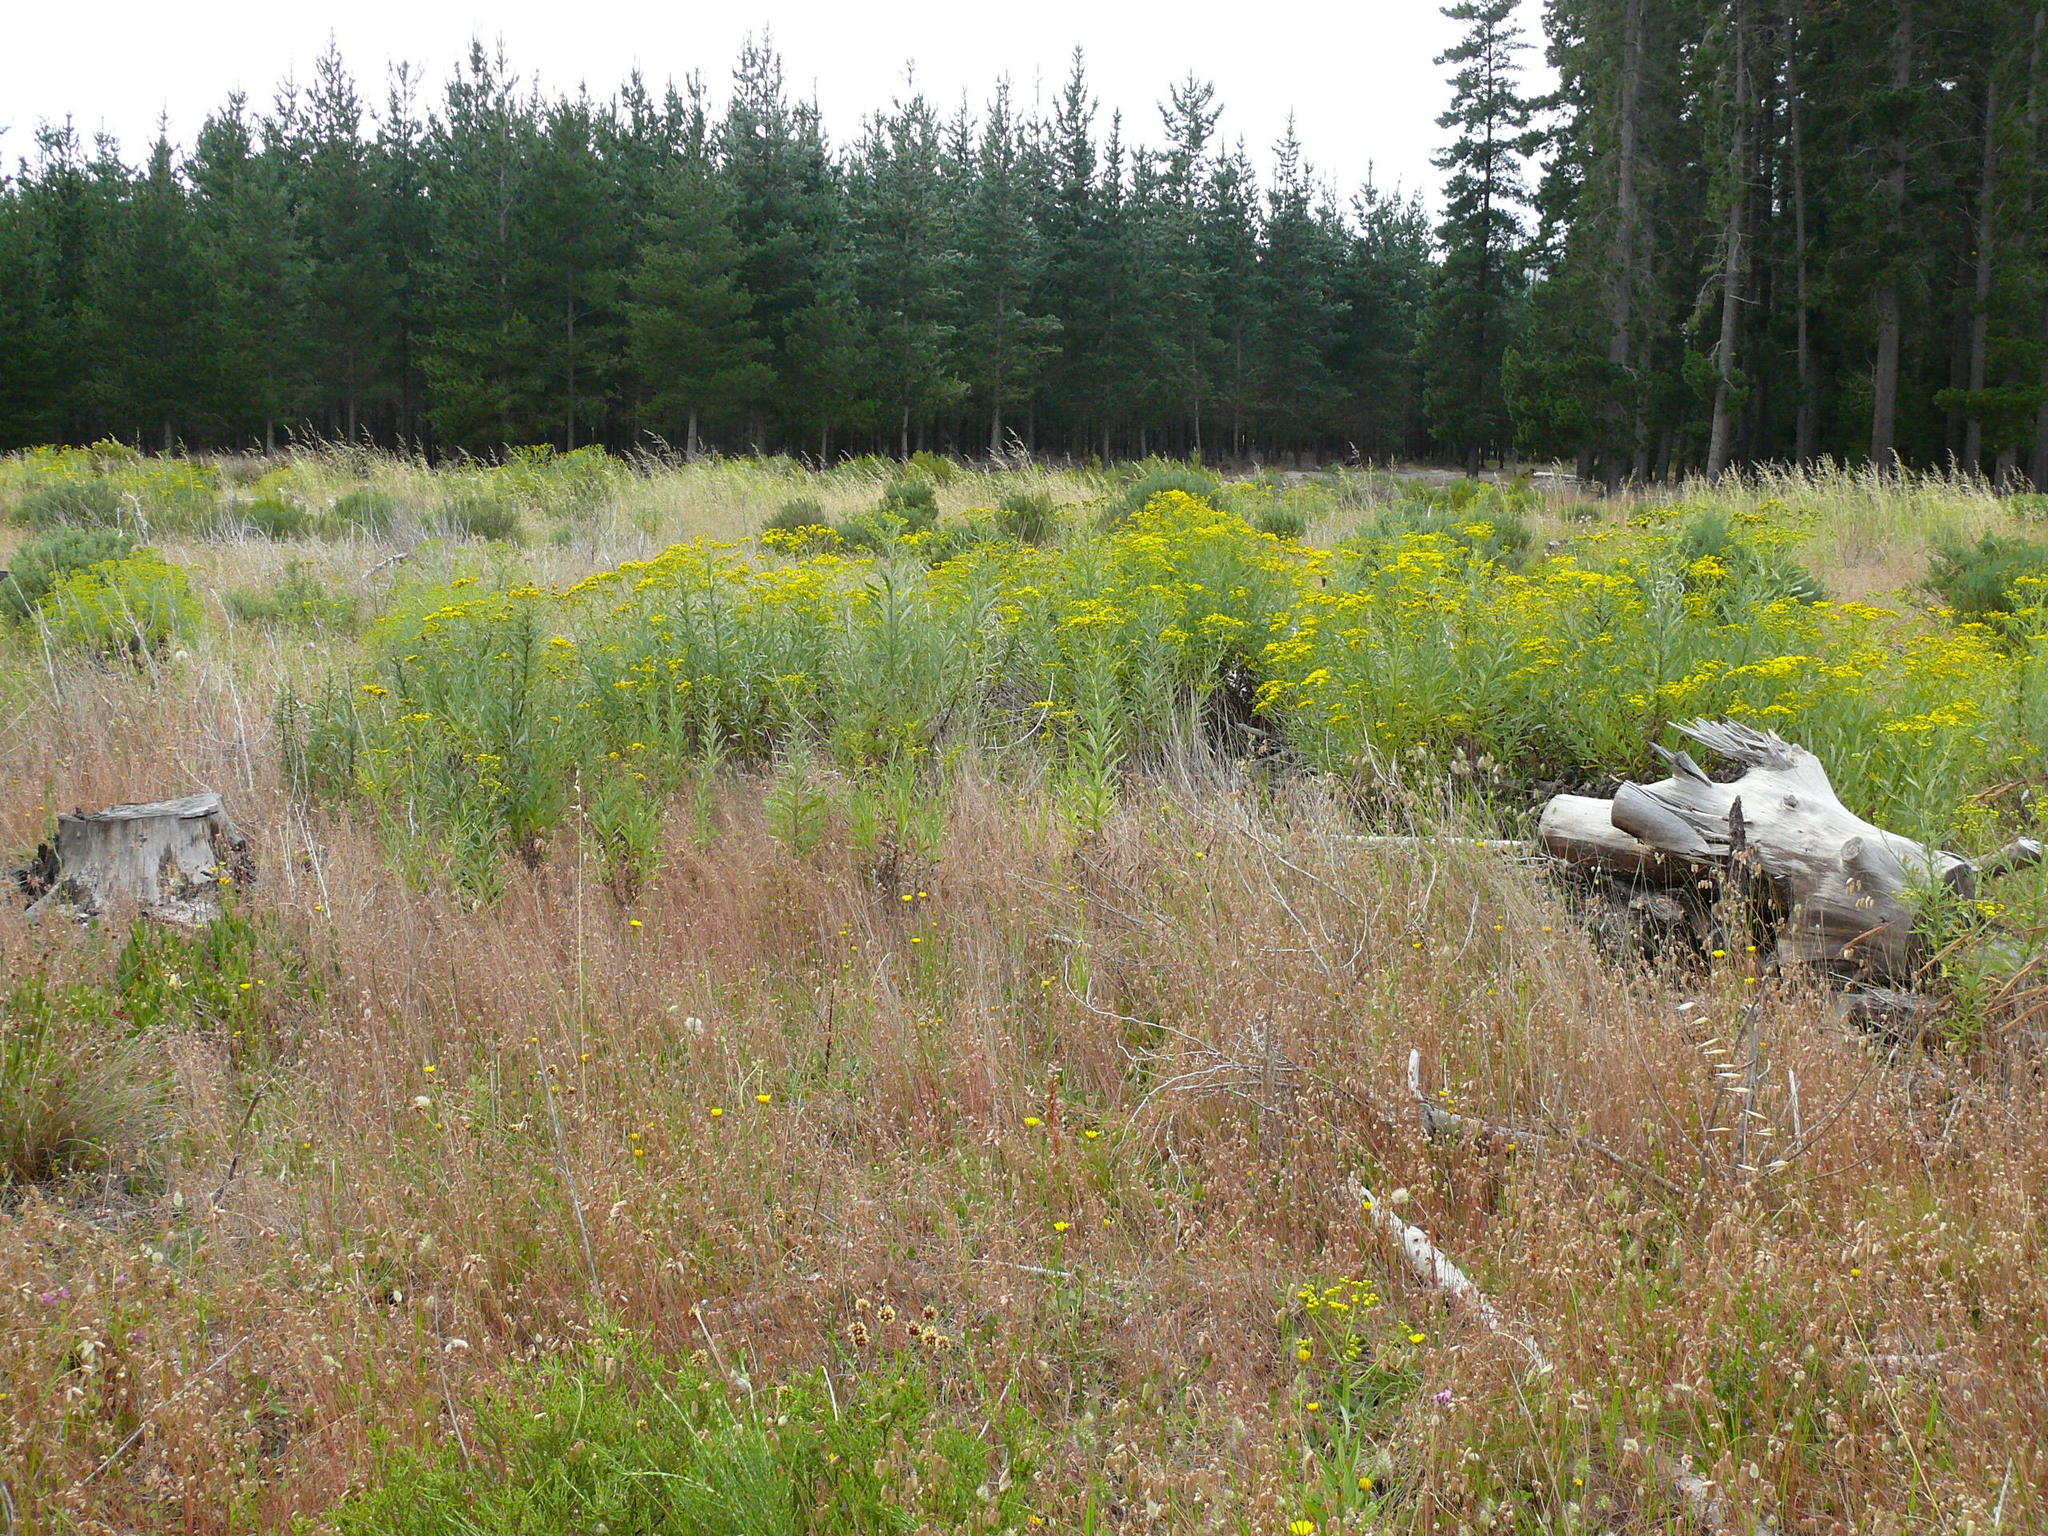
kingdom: Plantae
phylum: Tracheophyta
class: Magnoliopsida
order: Asterales
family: Asteraceae
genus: Senecio
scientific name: Senecio pterophorus
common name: Shoddy ragwort
